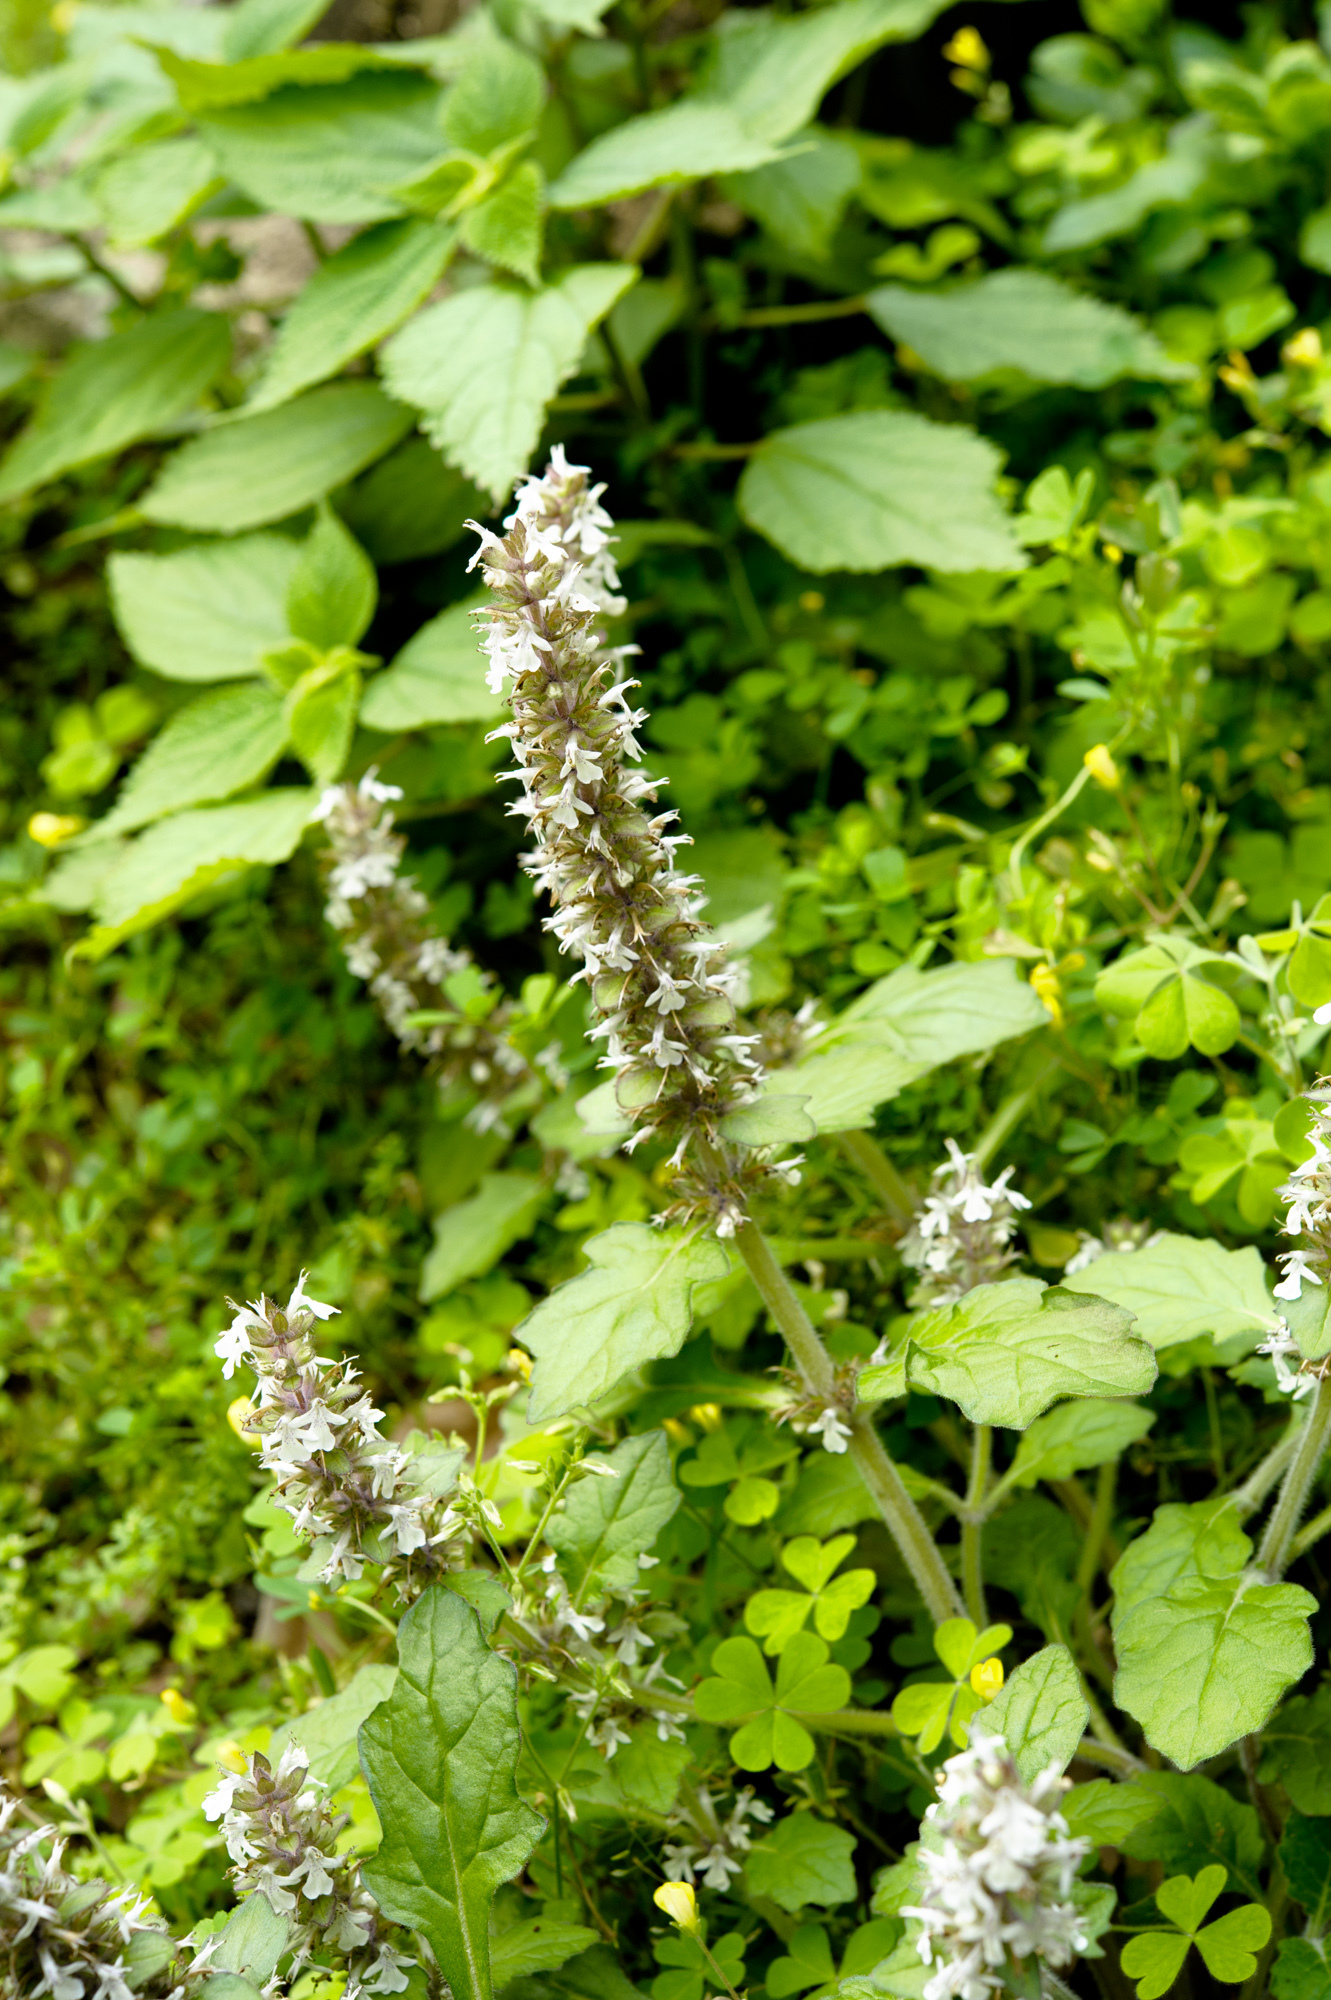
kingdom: Plantae
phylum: Tracheophyta
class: Magnoliopsida
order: Lamiales
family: Lamiaceae
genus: Ajuga
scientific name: Ajuga nipponensis
